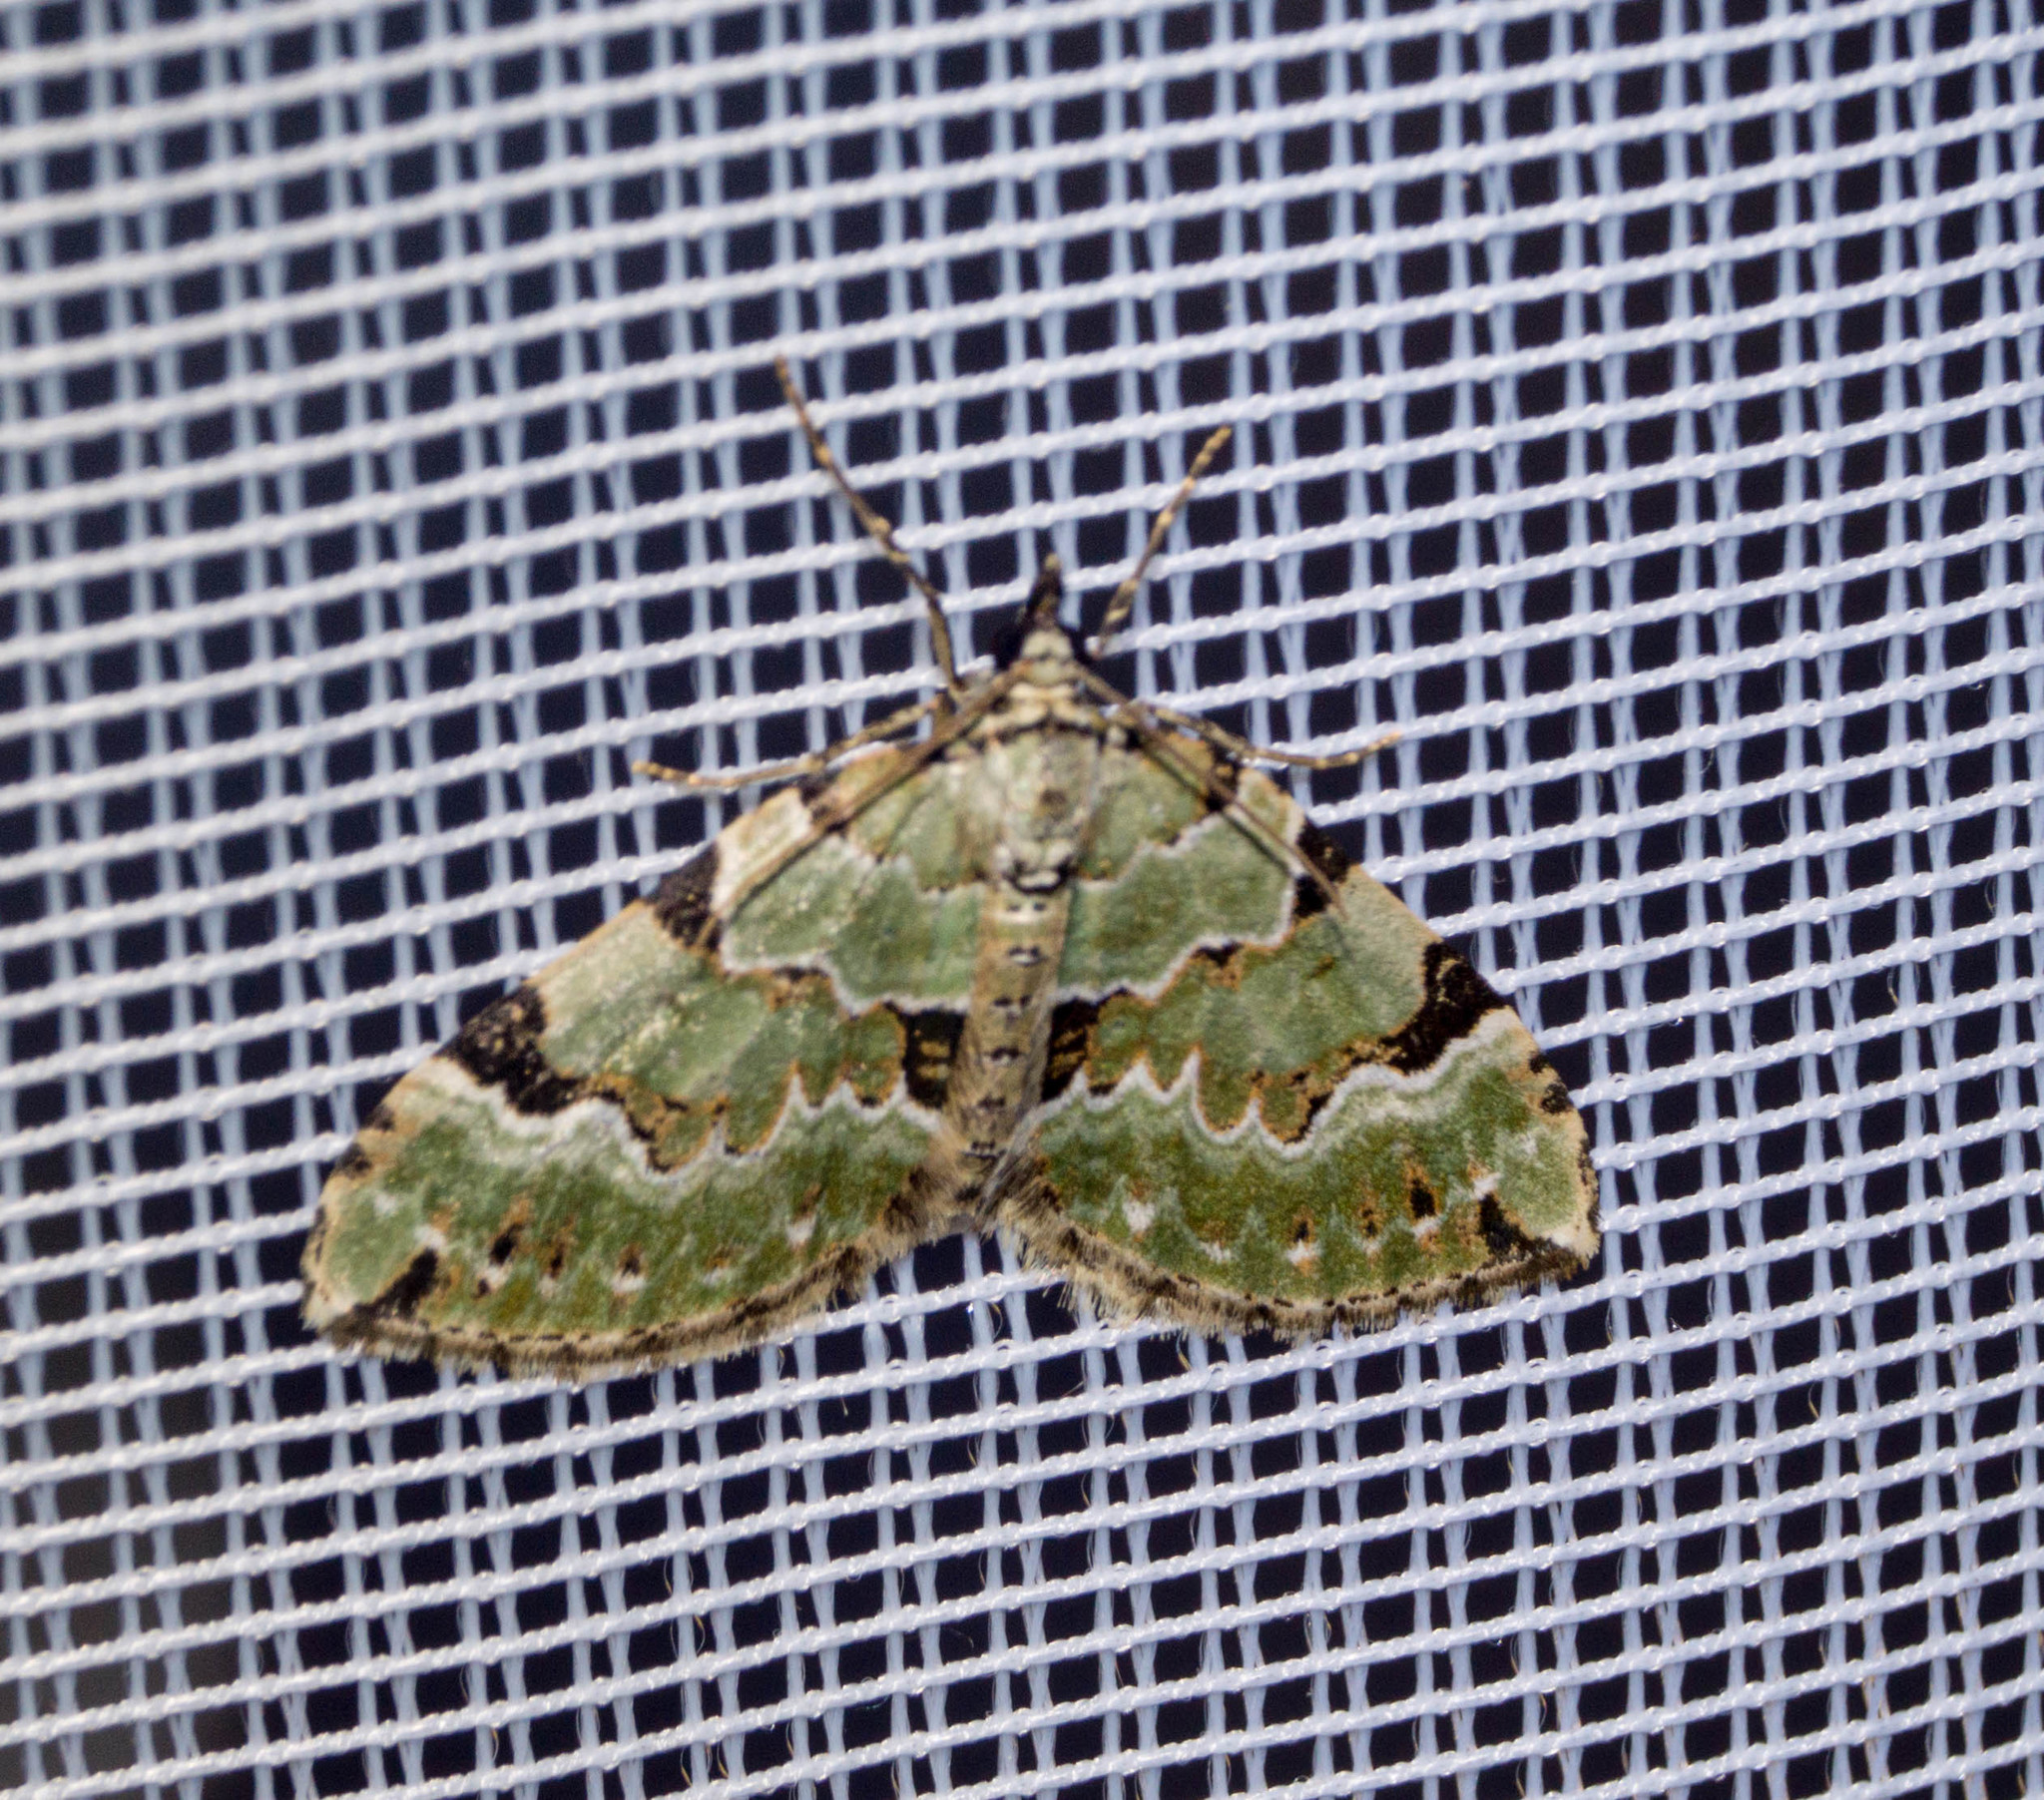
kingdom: Animalia
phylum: Arthropoda
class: Insecta
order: Lepidoptera
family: Geometridae
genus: Colostygia
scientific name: Colostygia pectinataria
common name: Green carpet
